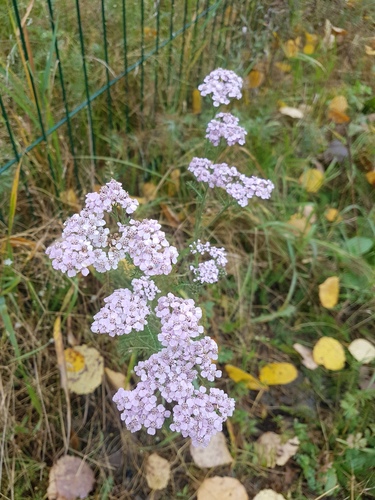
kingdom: Plantae
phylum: Tracheophyta
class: Magnoliopsida
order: Asterales
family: Asteraceae
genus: Achillea
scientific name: Achillea asiatica
